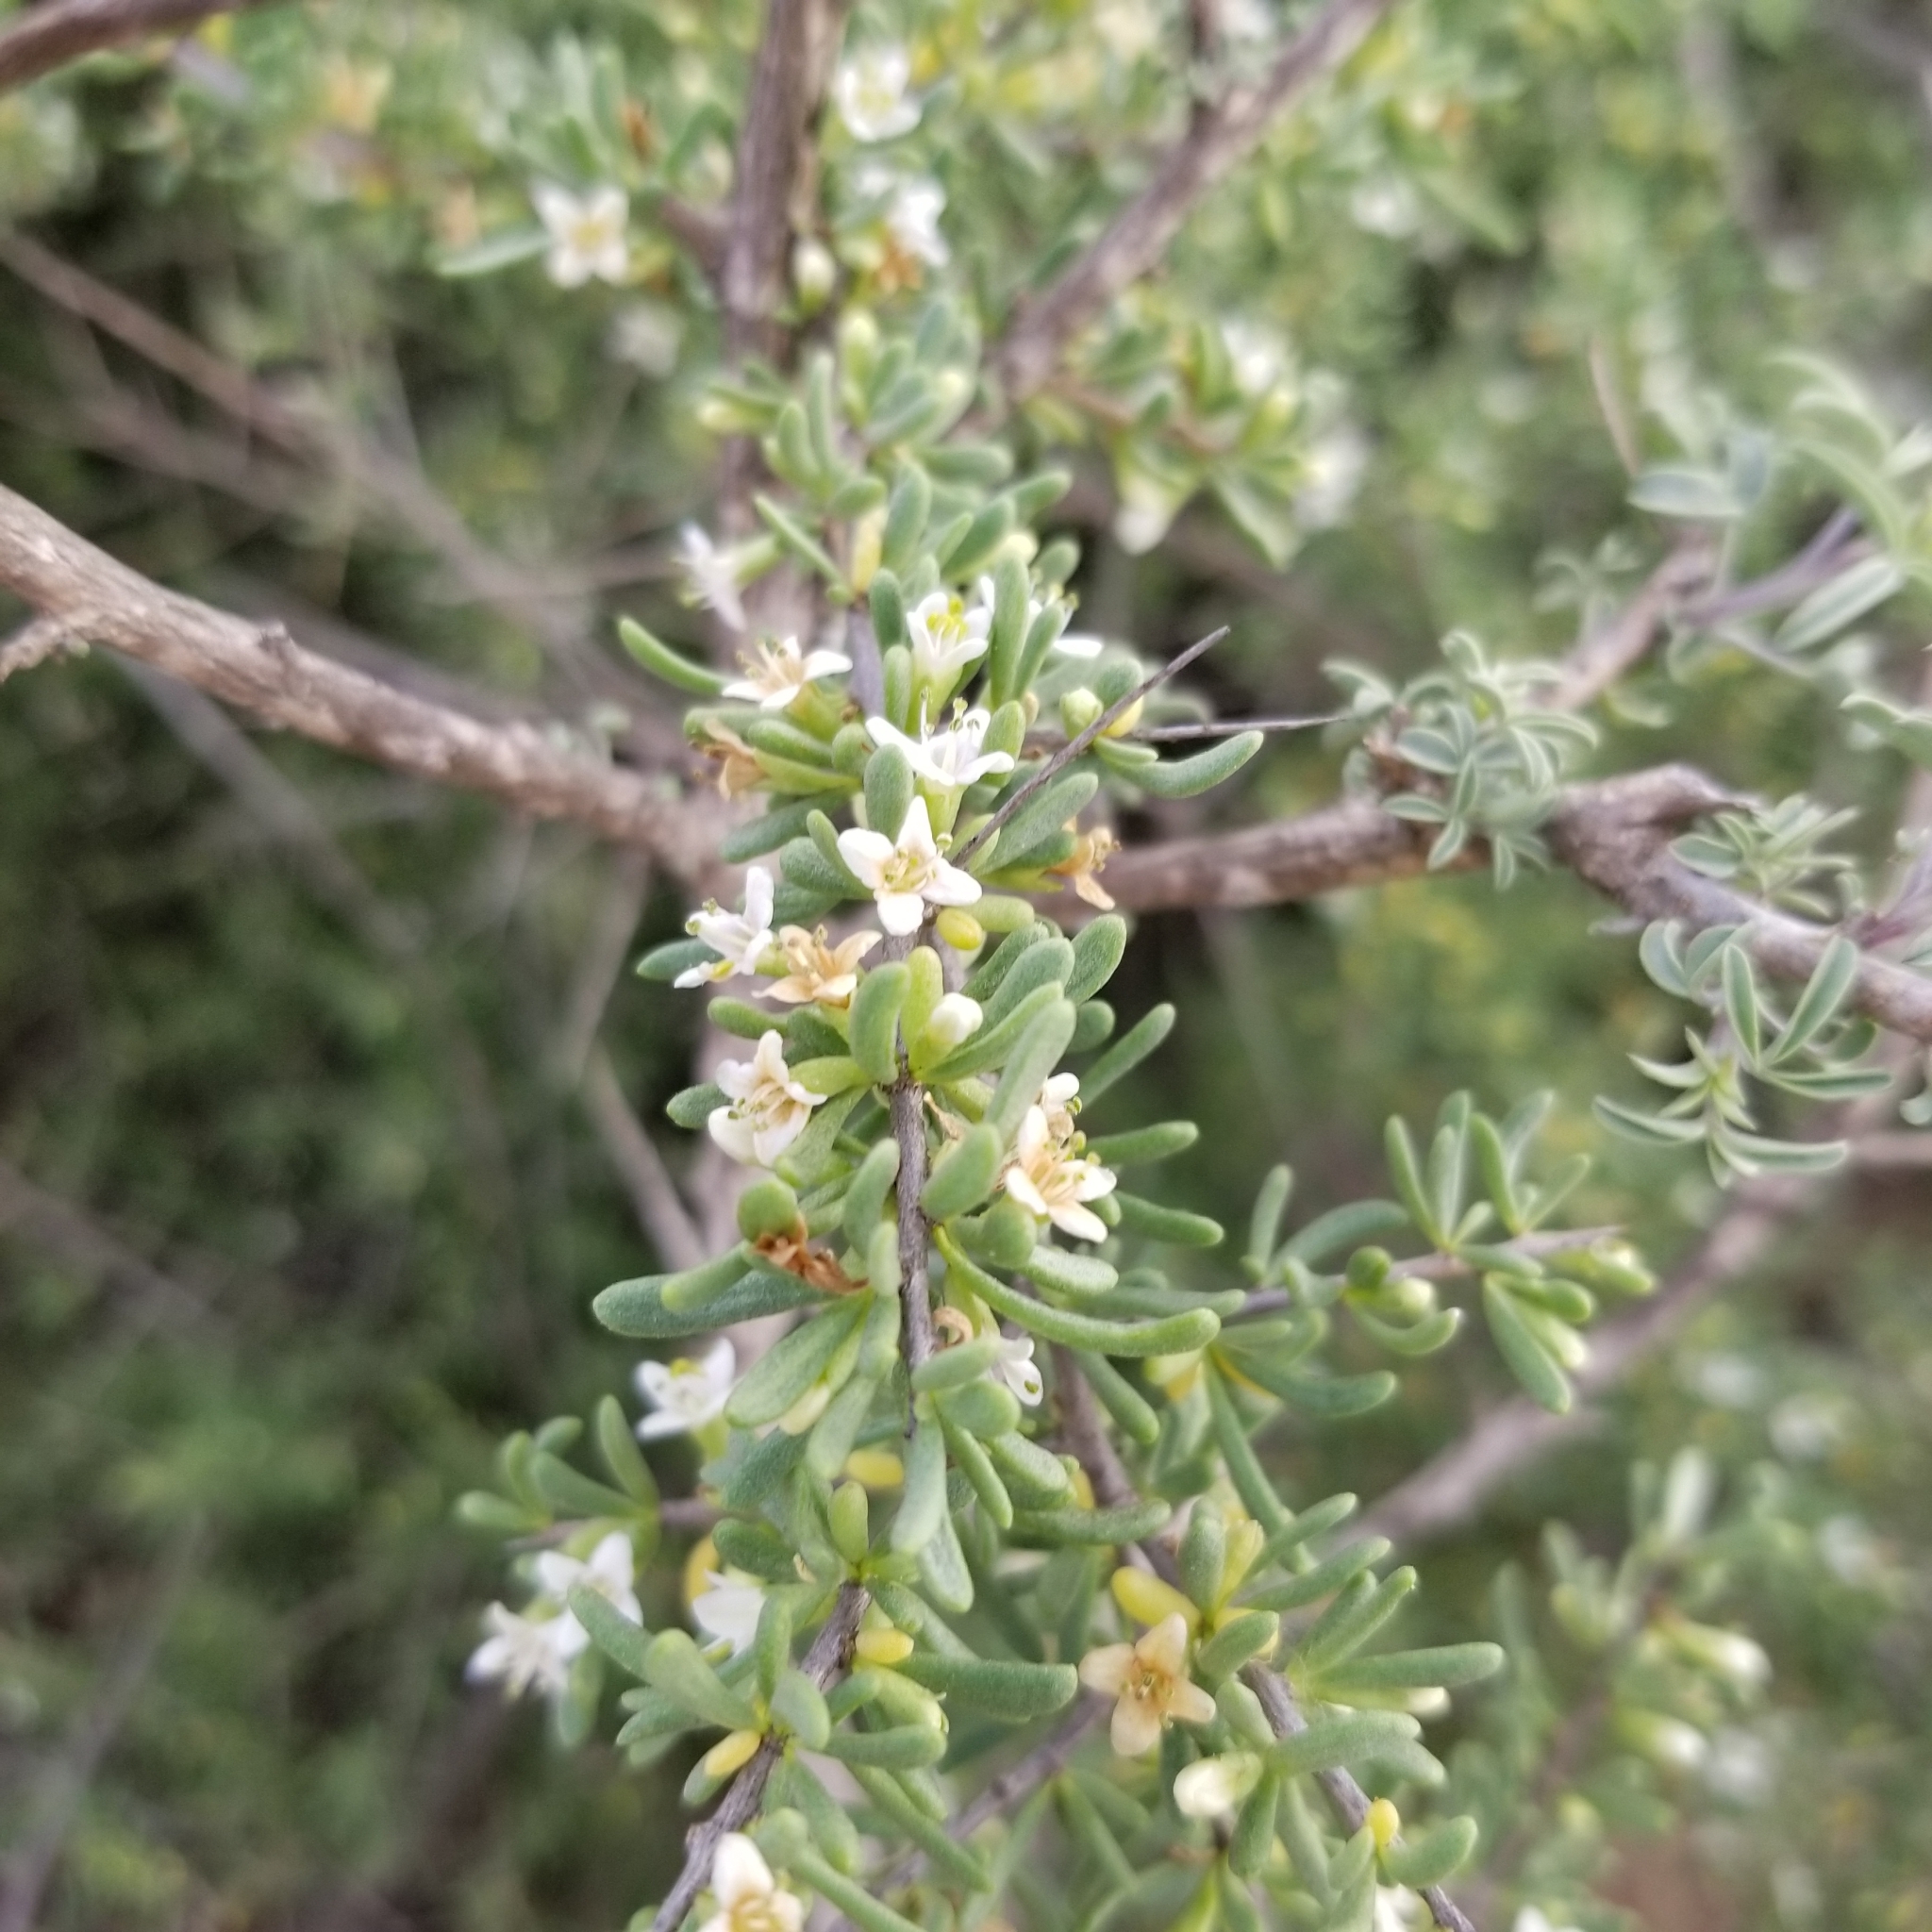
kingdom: Plantae
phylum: Tracheophyta
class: Magnoliopsida
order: Solanales
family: Solanaceae
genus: Lycium
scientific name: Lycium californicum
